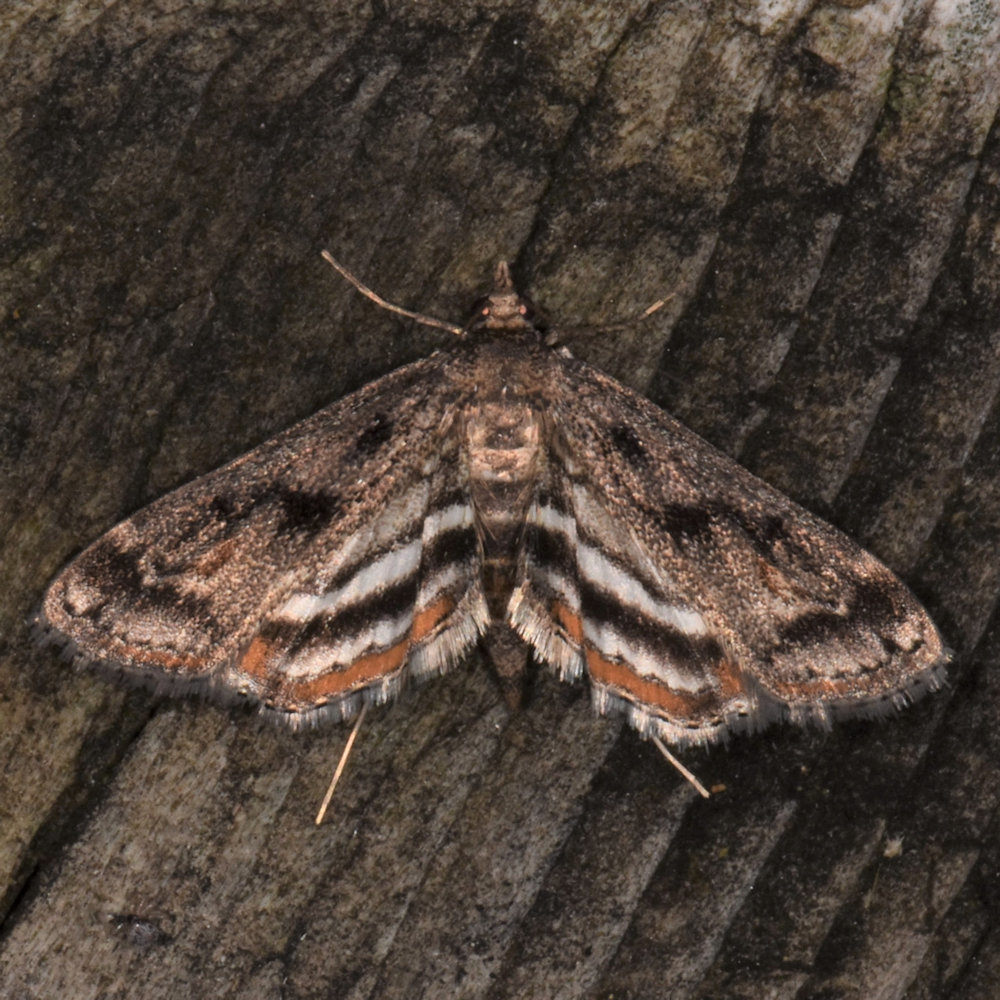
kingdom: Animalia
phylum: Arthropoda
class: Insecta
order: Lepidoptera
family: Crambidae
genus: Parapoynx
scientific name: Parapoynx obscuralis
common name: American china-mark
